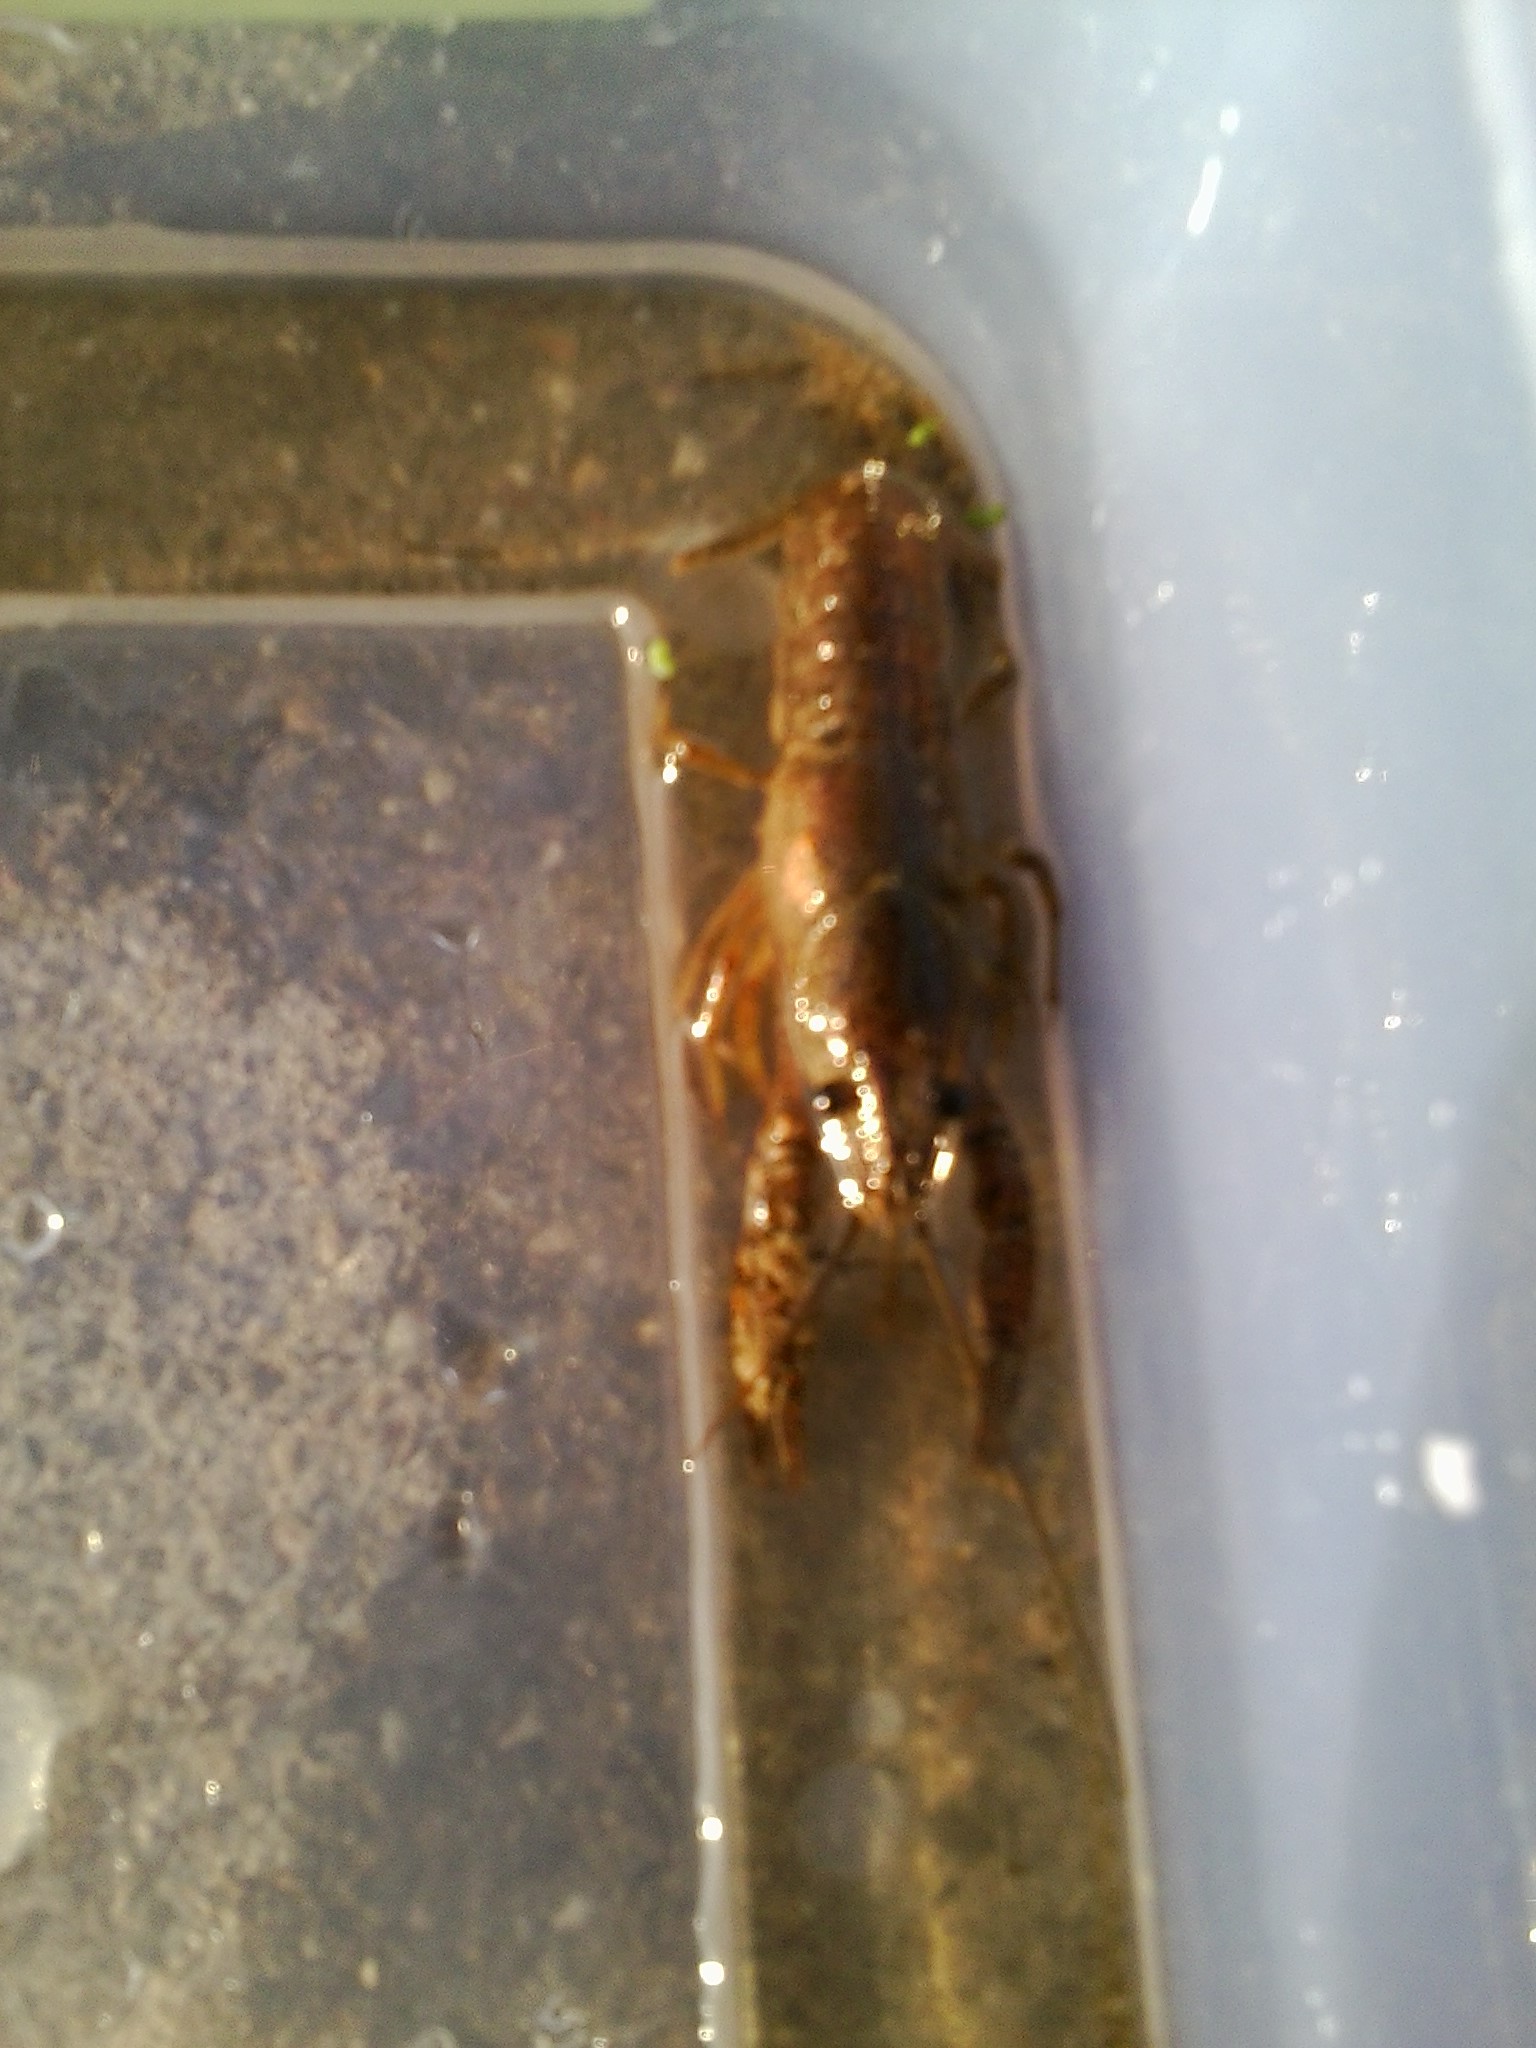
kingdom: Animalia
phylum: Arthropoda
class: Malacostraca
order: Decapoda
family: Cambaridae
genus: Procambarus
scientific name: Procambarus clarkii
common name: Red swamp crayfish
